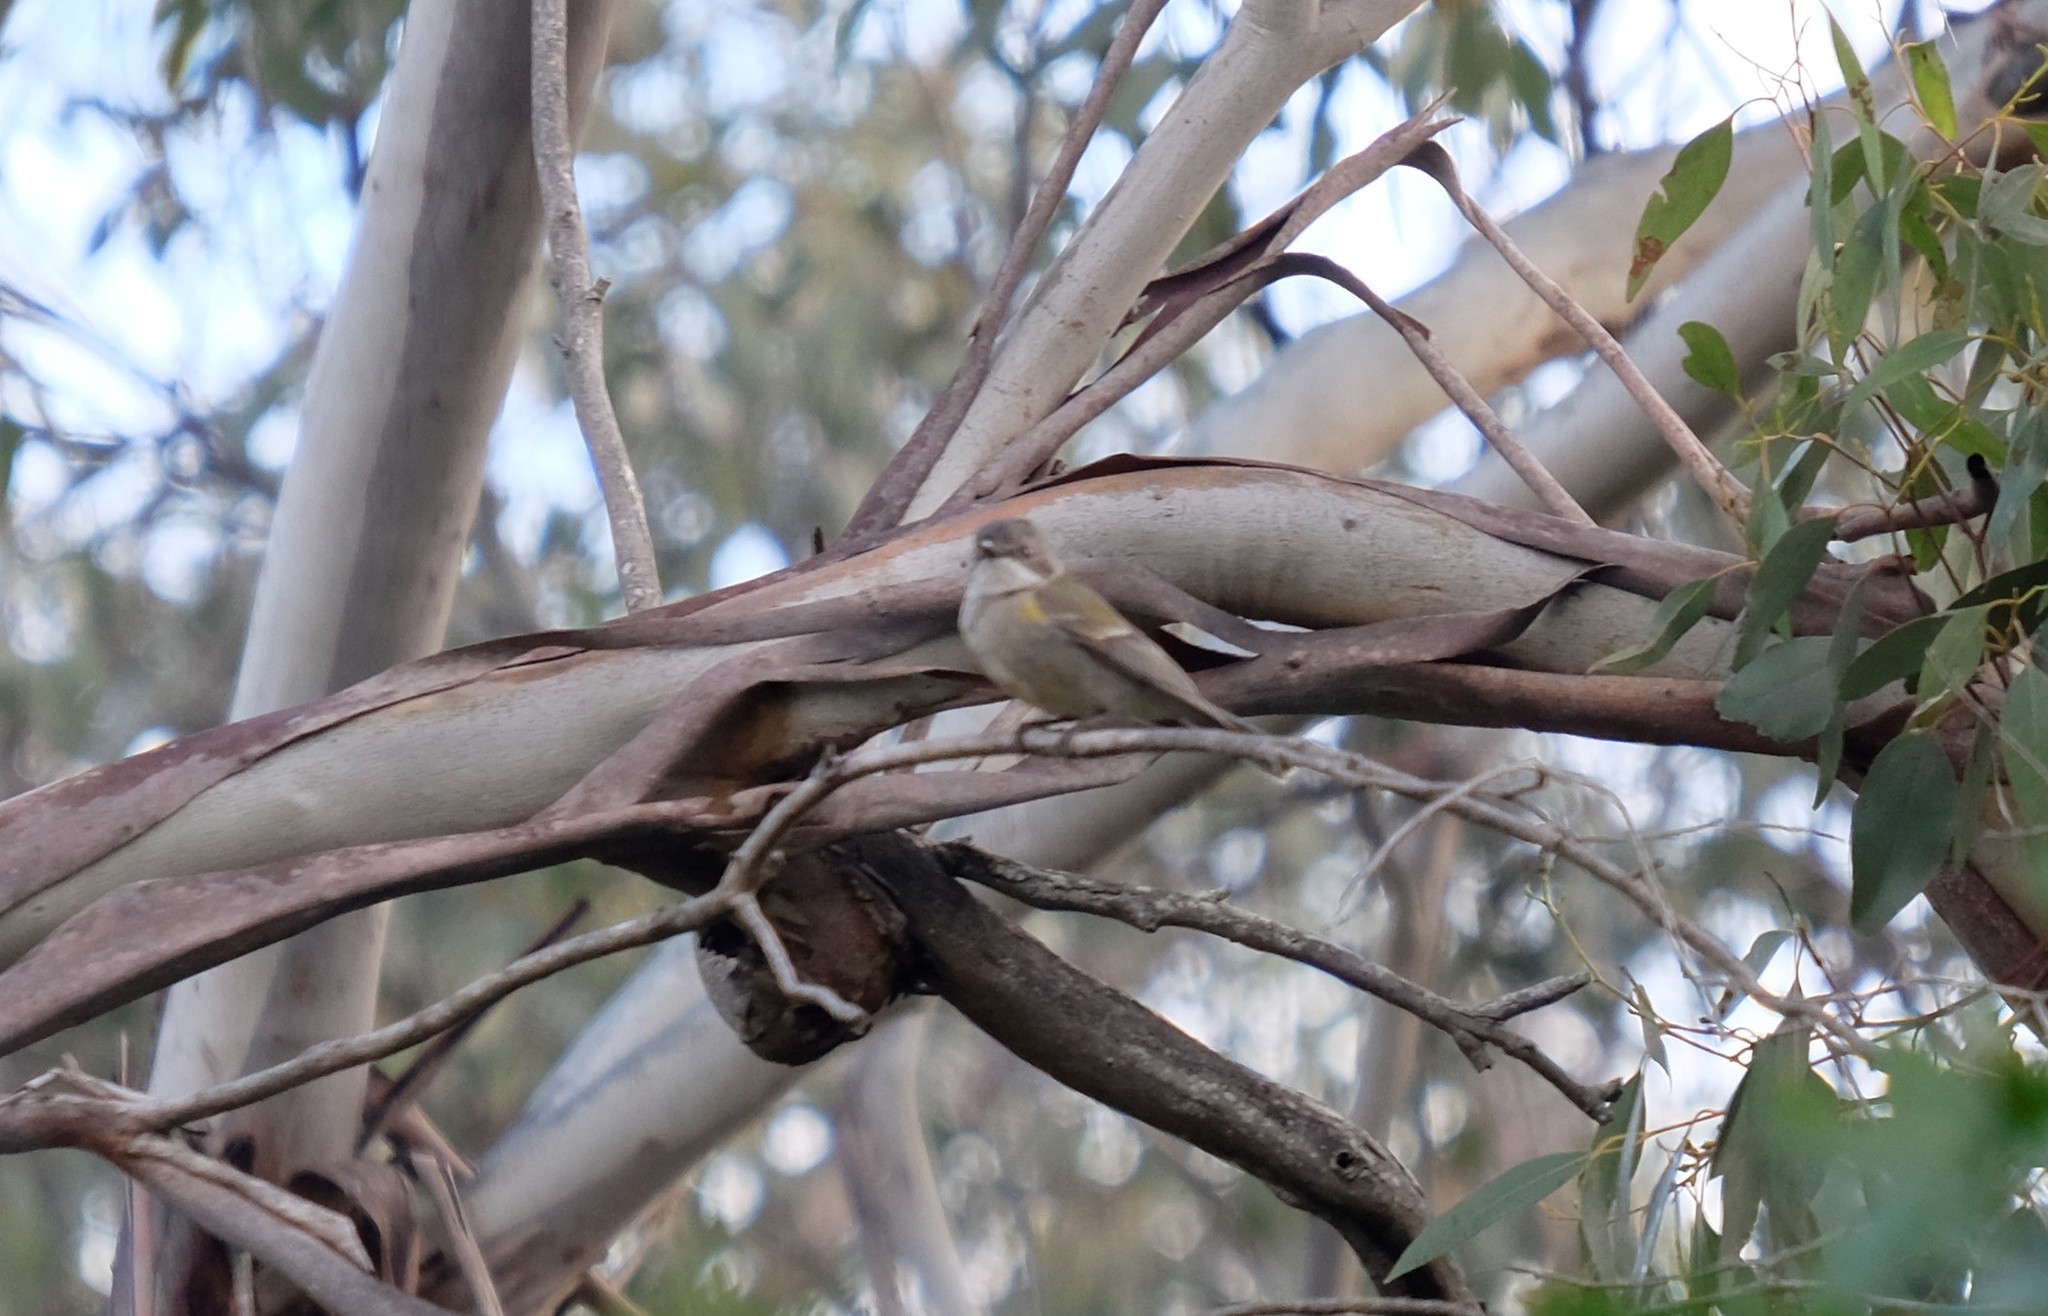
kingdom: Animalia
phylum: Chordata
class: Aves
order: Passeriformes
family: Pachycephalidae
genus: Pachycephala
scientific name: Pachycephala pectoralis
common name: Australian golden whistler
